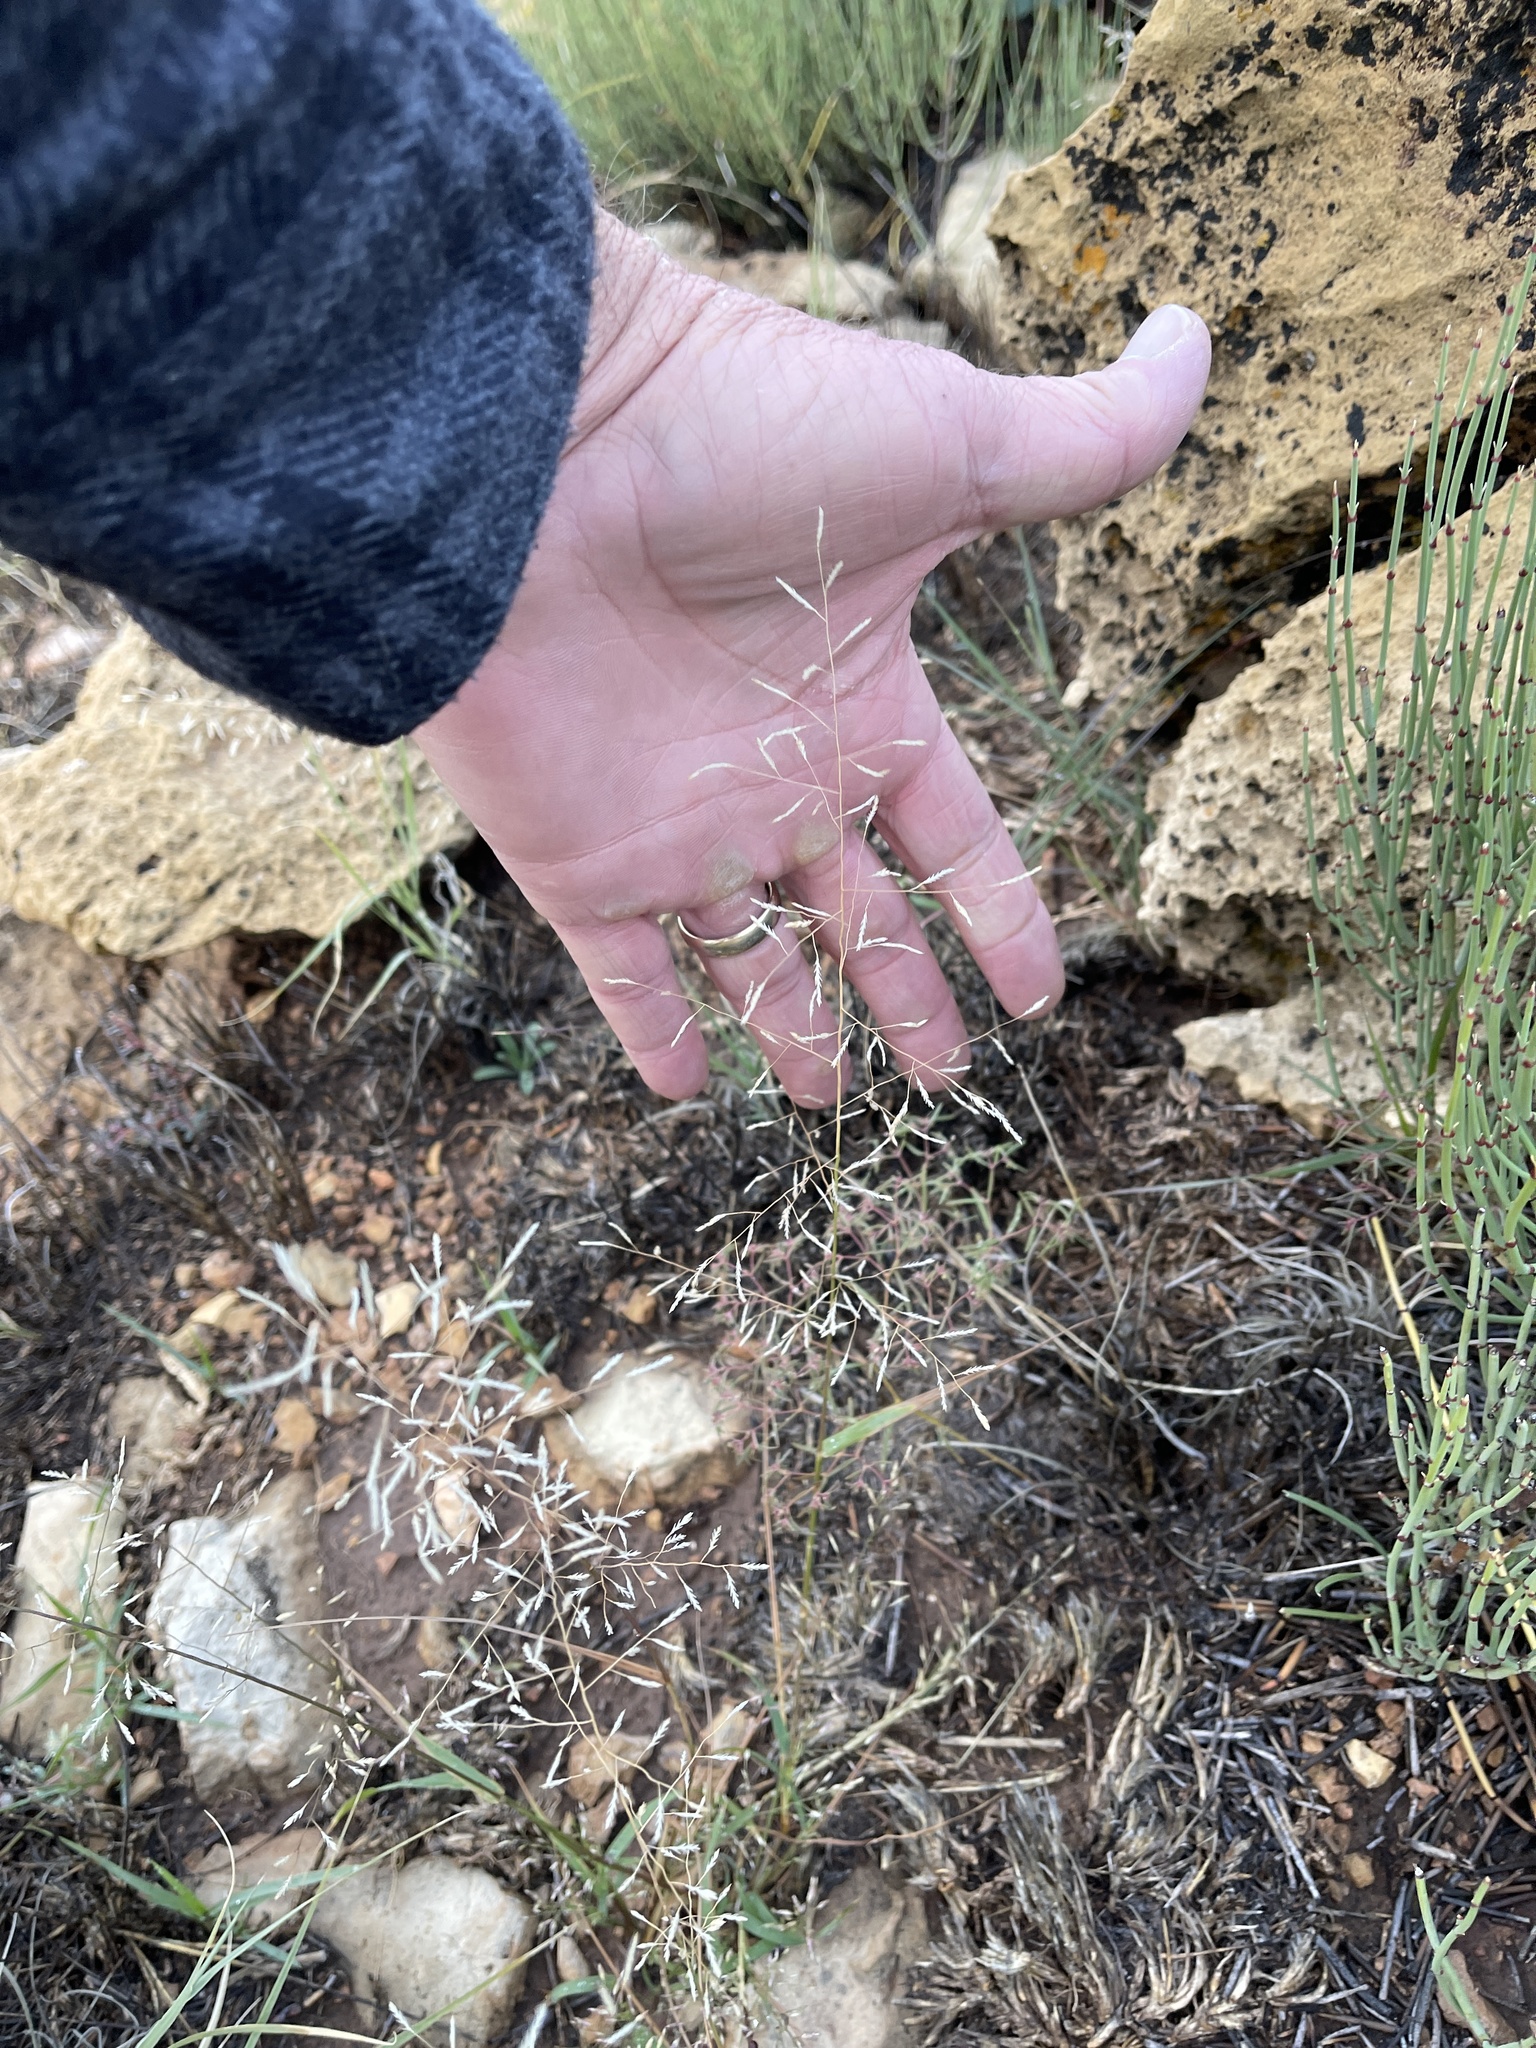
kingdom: Plantae
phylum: Tracheophyta
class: Liliopsida
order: Poales
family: Poaceae
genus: Eragrostis
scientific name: Eragrostis lehmanniana
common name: Lehmann lovegrass
